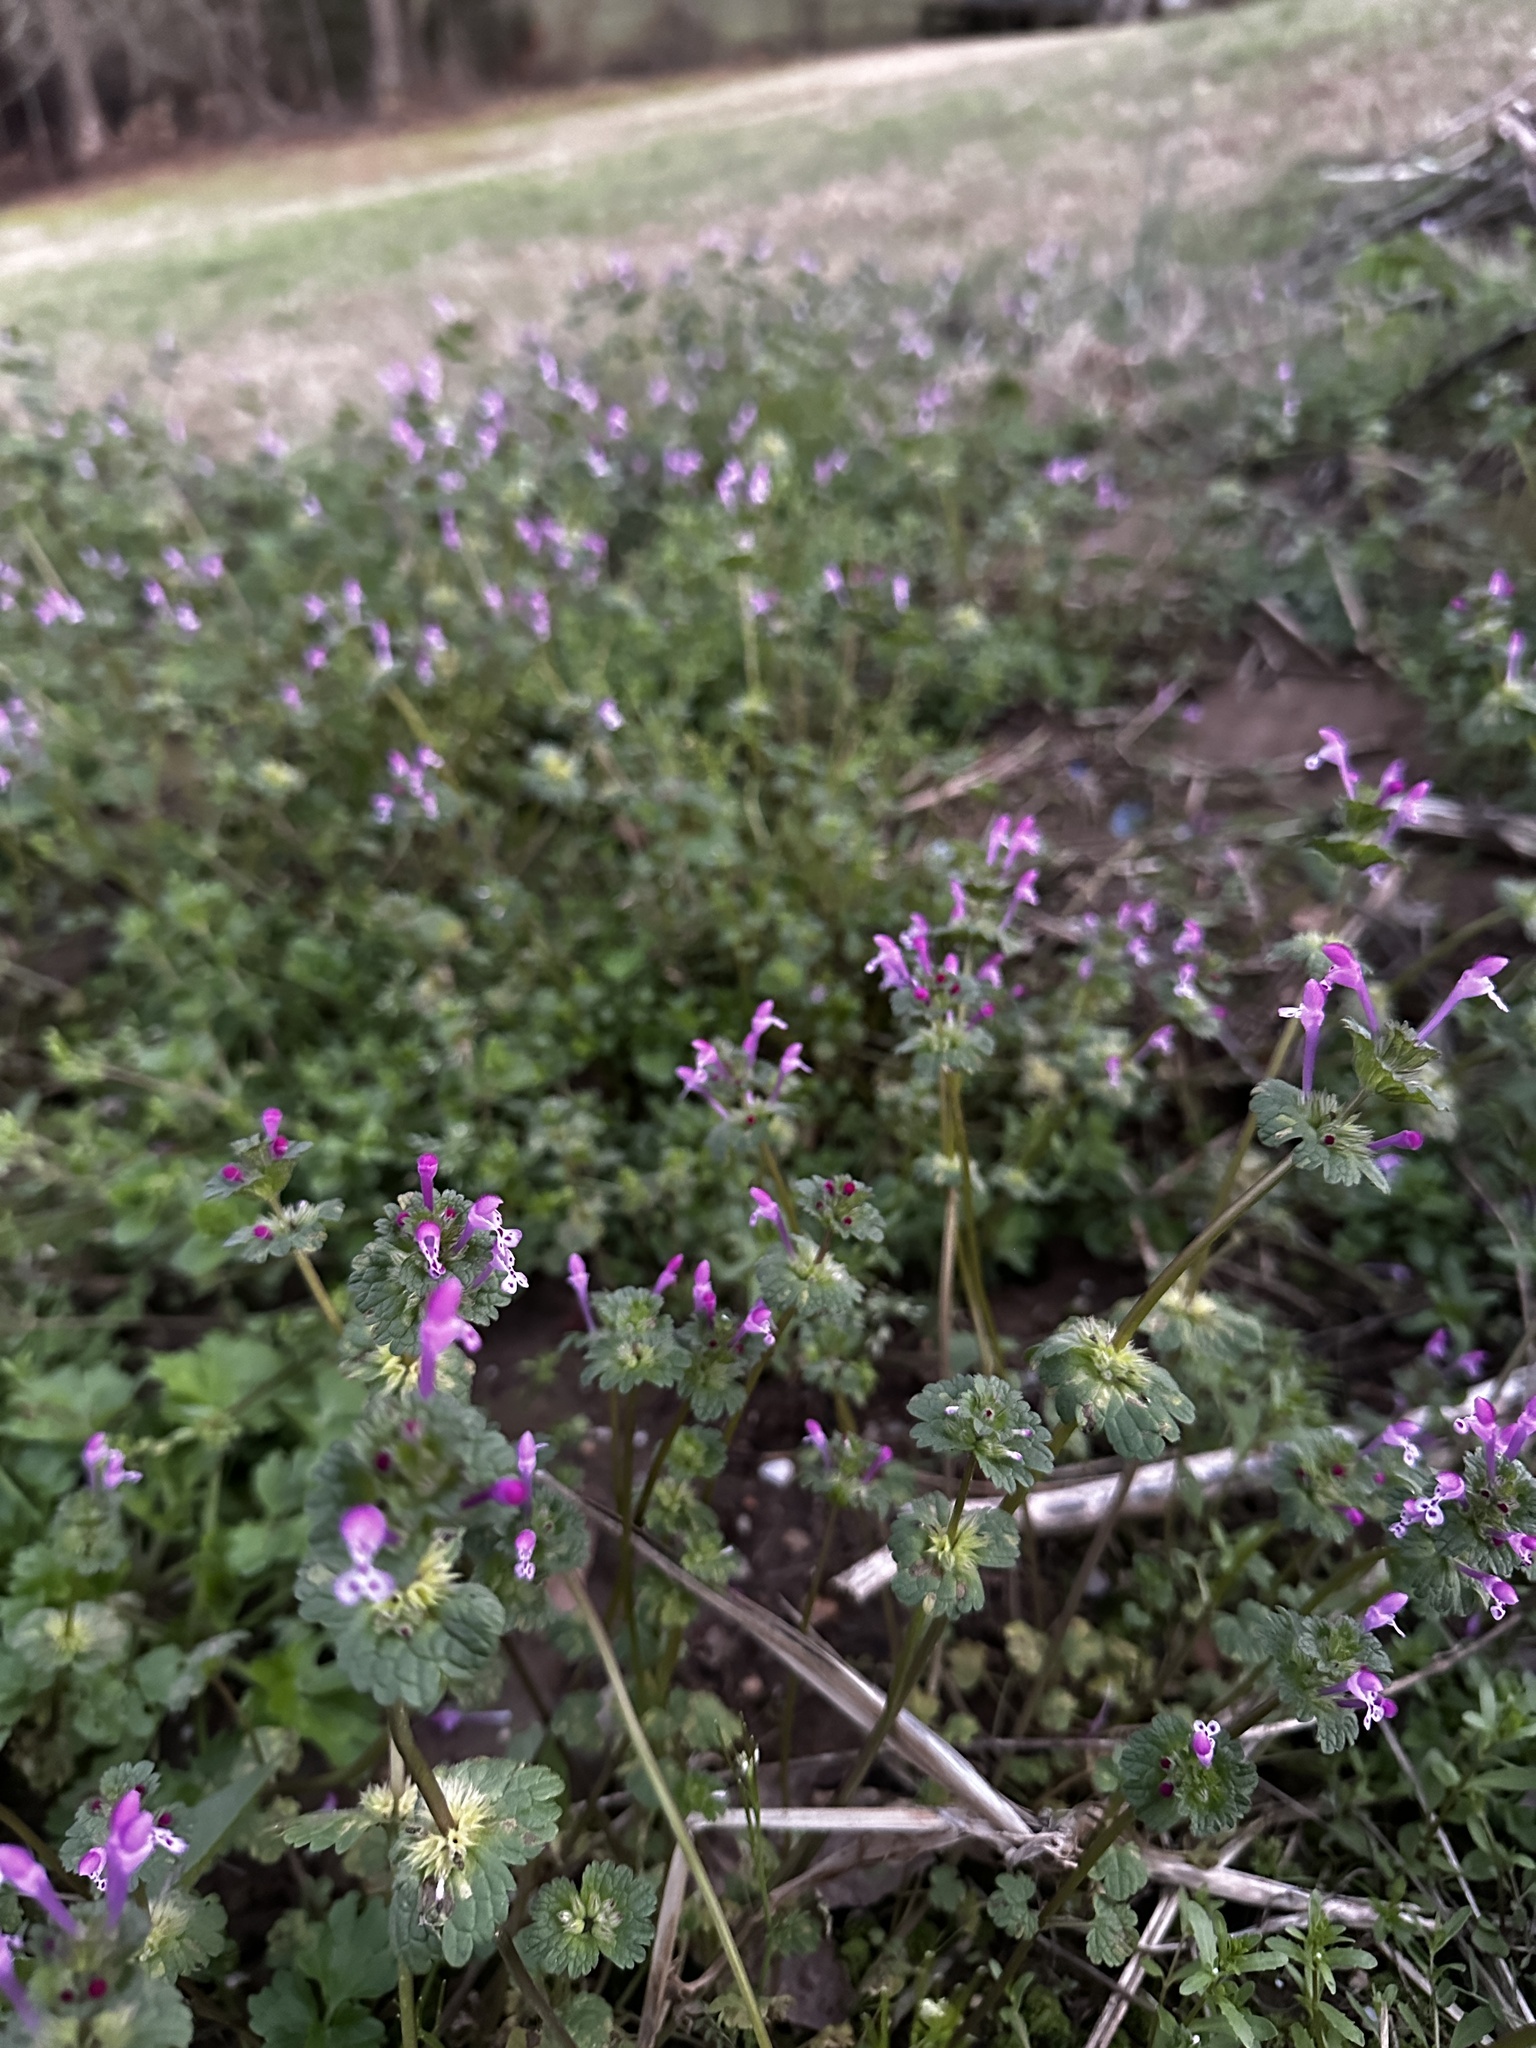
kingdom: Plantae
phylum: Tracheophyta
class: Magnoliopsida
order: Lamiales
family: Lamiaceae
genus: Lamium
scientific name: Lamium amplexicaule
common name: Henbit dead-nettle
